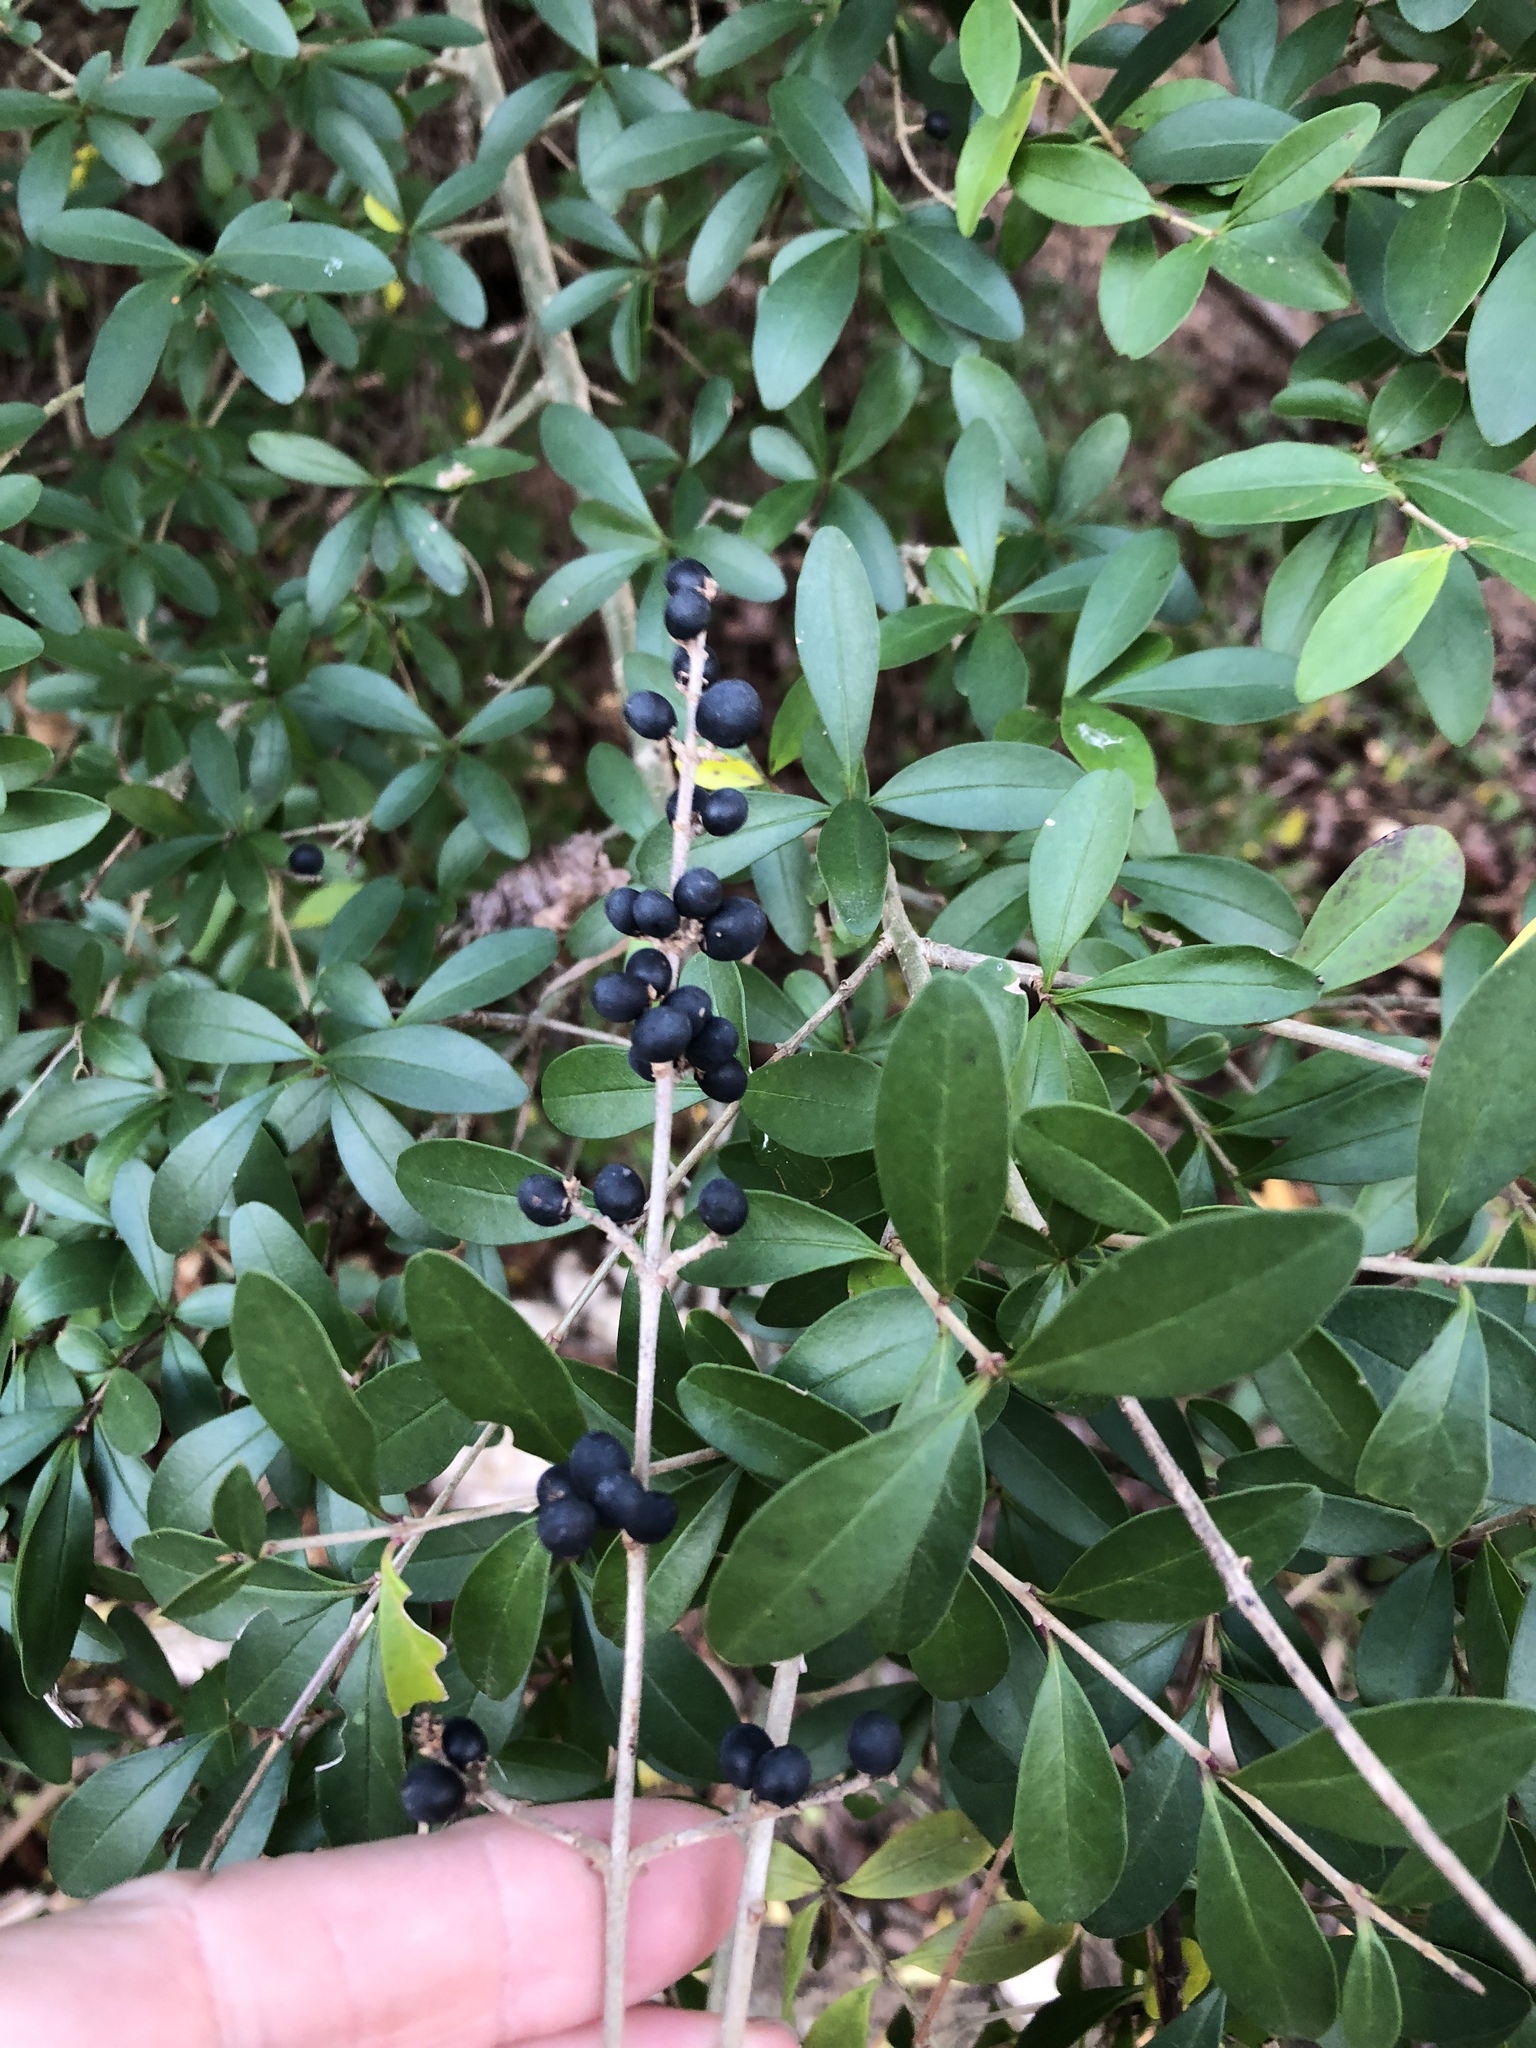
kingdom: Plantae
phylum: Tracheophyta
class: Magnoliopsida
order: Lamiales
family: Oleaceae
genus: Ligustrum
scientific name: Ligustrum quihoui
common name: Waxyleaf privet
